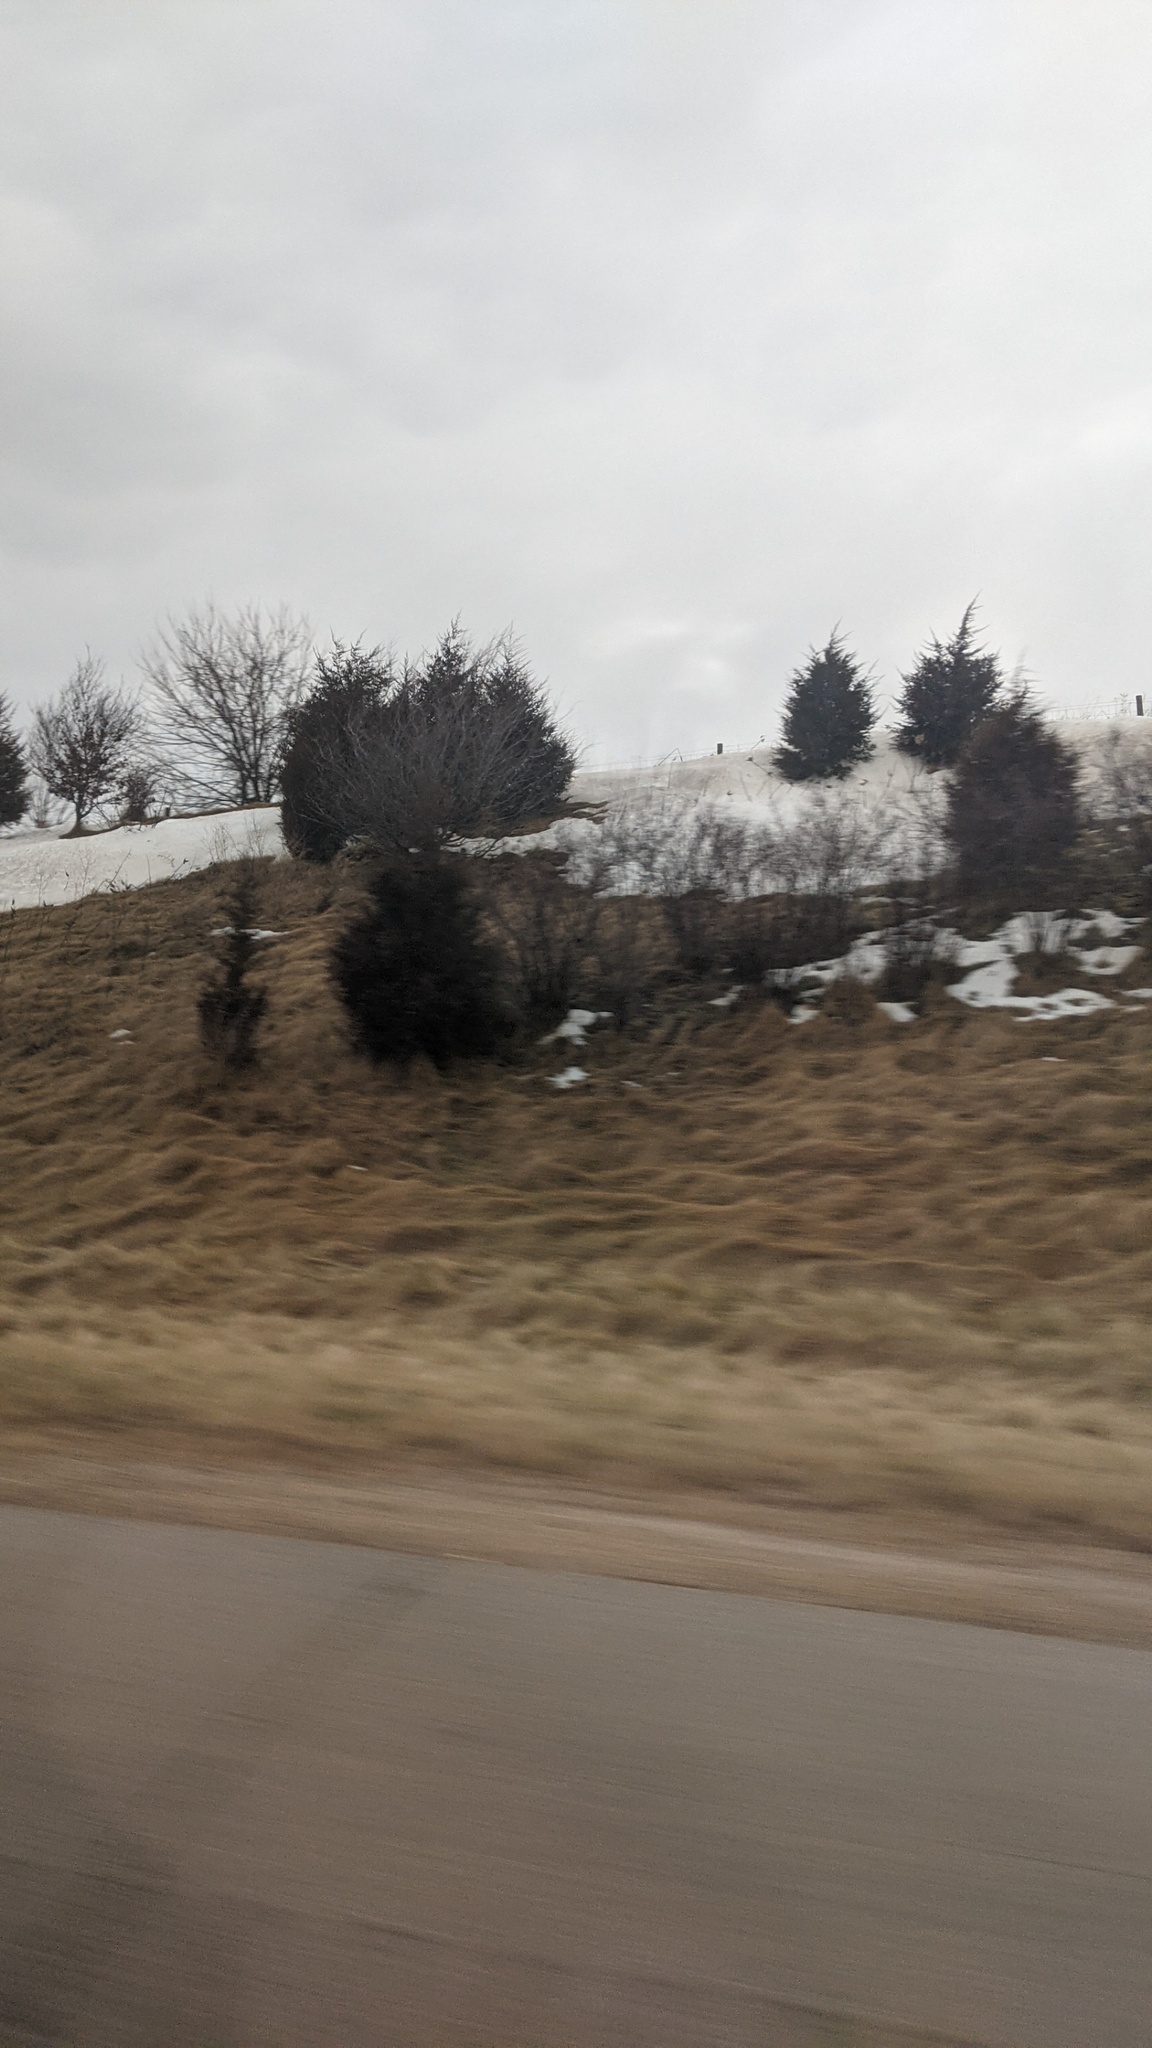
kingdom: Plantae
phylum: Tracheophyta
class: Pinopsida
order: Pinales
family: Cupressaceae
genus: Juniperus
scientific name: Juniperus virginiana
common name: Red juniper
